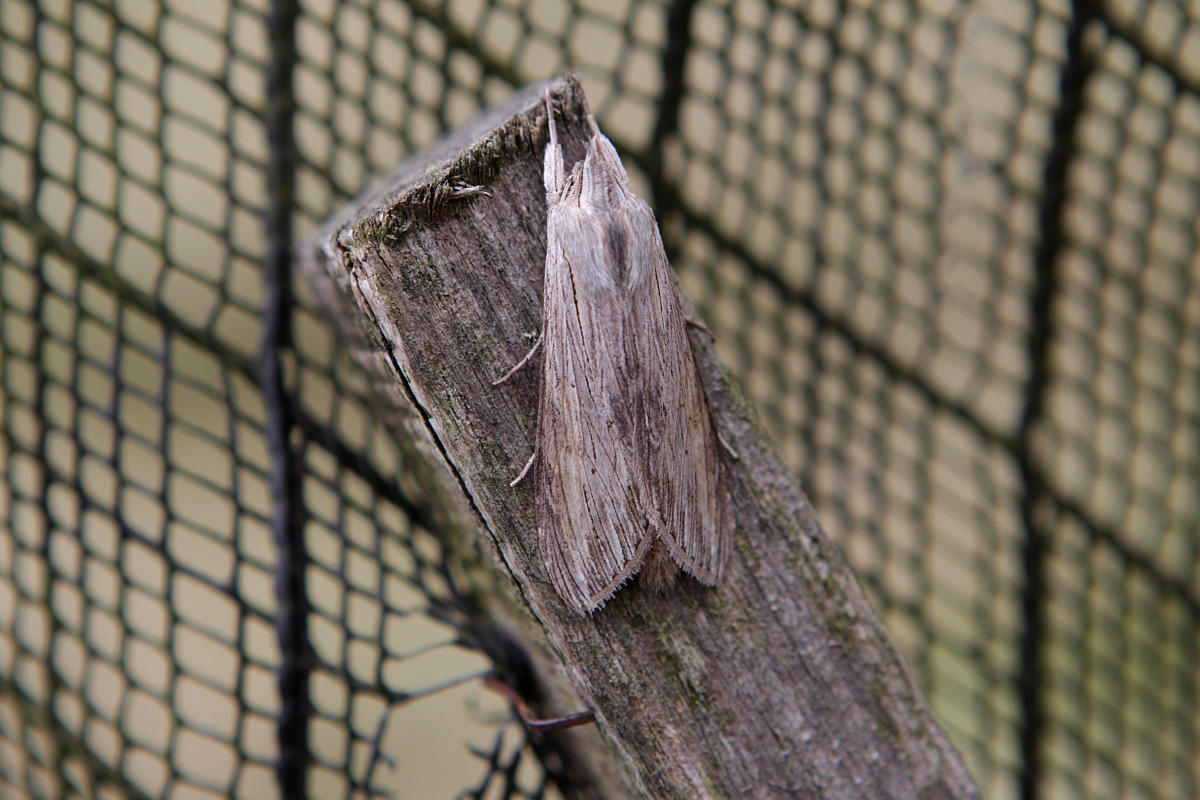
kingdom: Animalia
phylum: Arthropoda
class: Insecta
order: Lepidoptera
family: Noctuidae
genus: Cucullia
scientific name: Cucullia umbratica
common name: Shark
